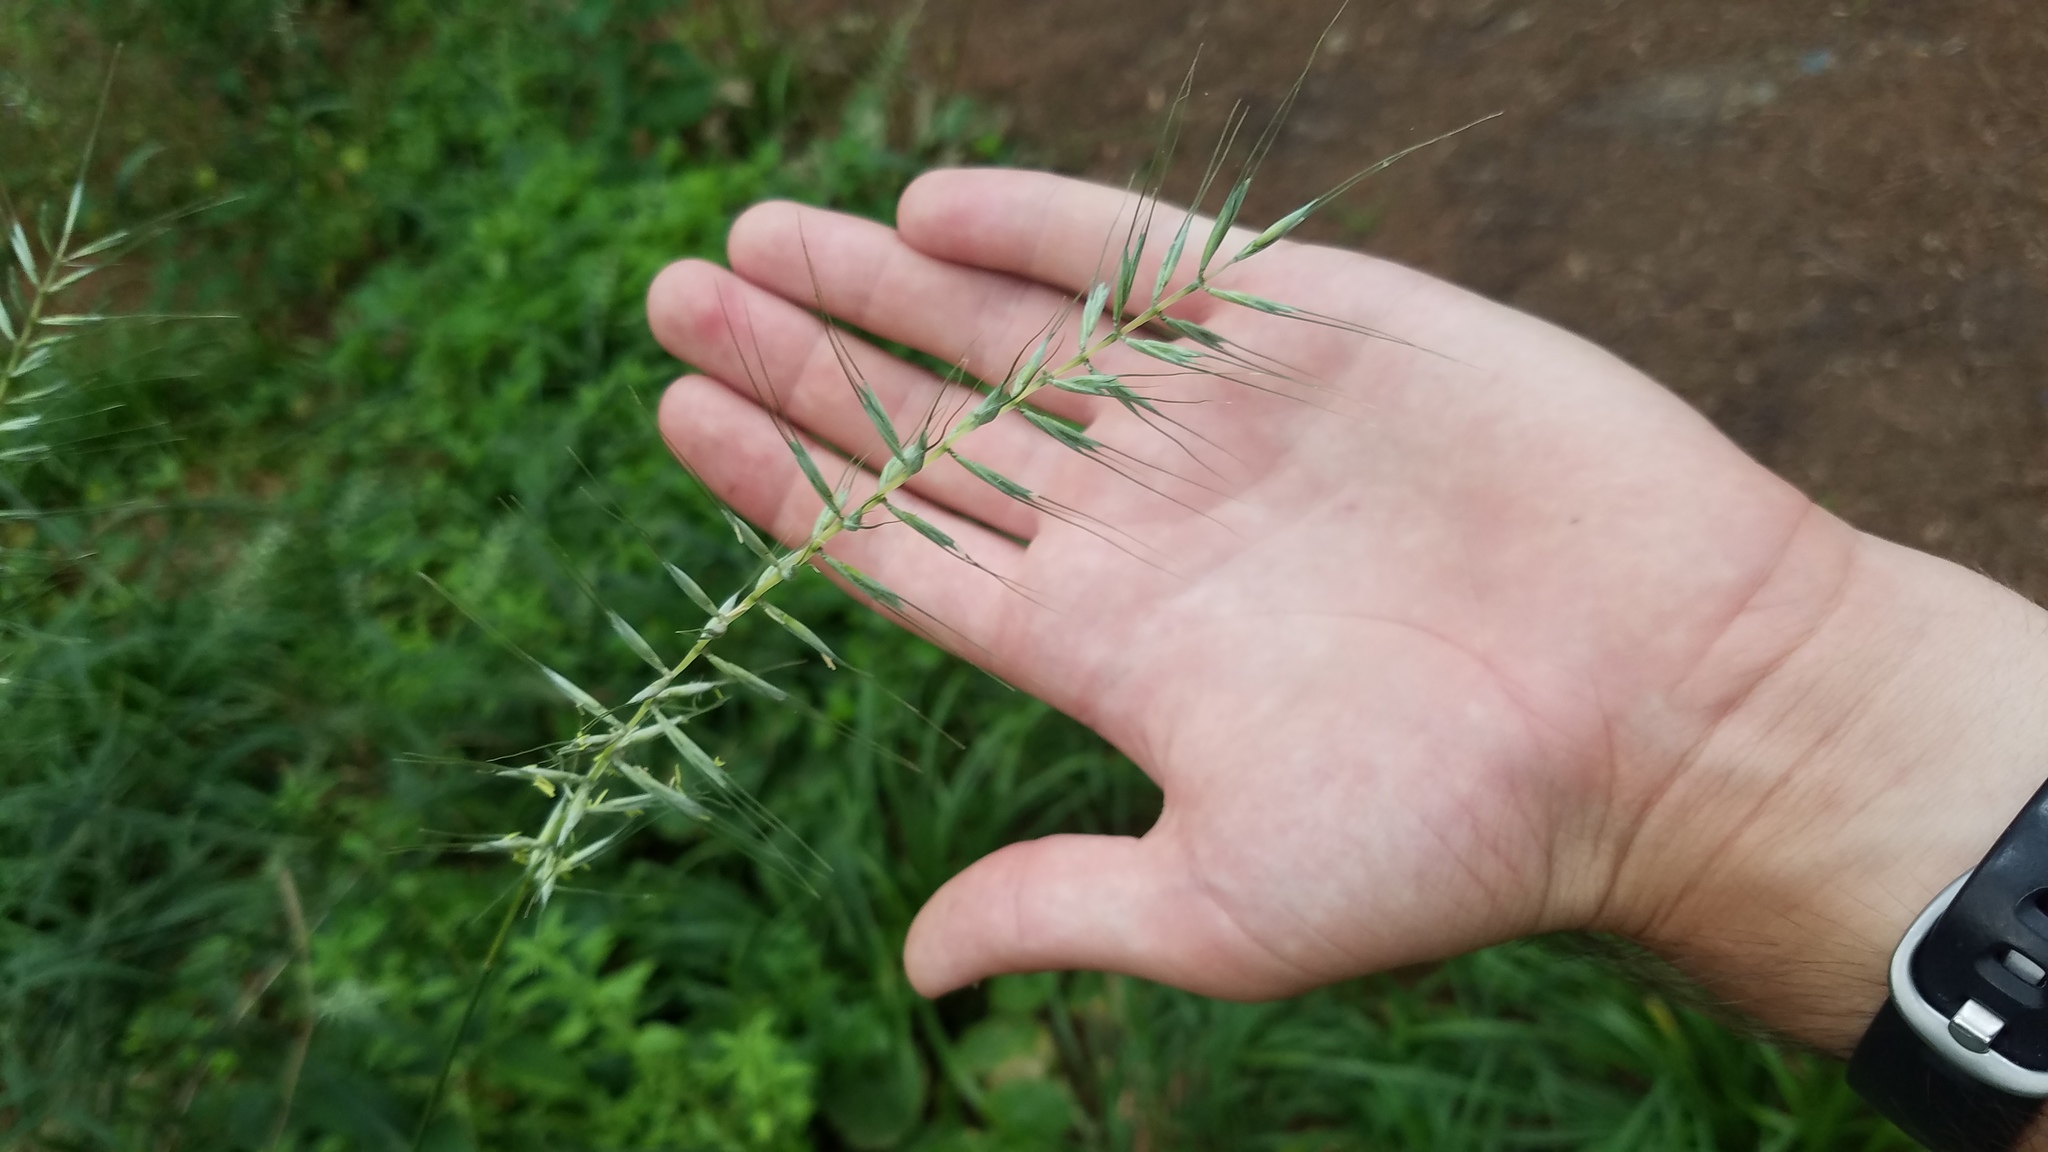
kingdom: Plantae
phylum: Tracheophyta
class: Liliopsida
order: Poales
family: Poaceae
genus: Elymus
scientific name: Elymus hystrix
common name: Bottlebrush grass
